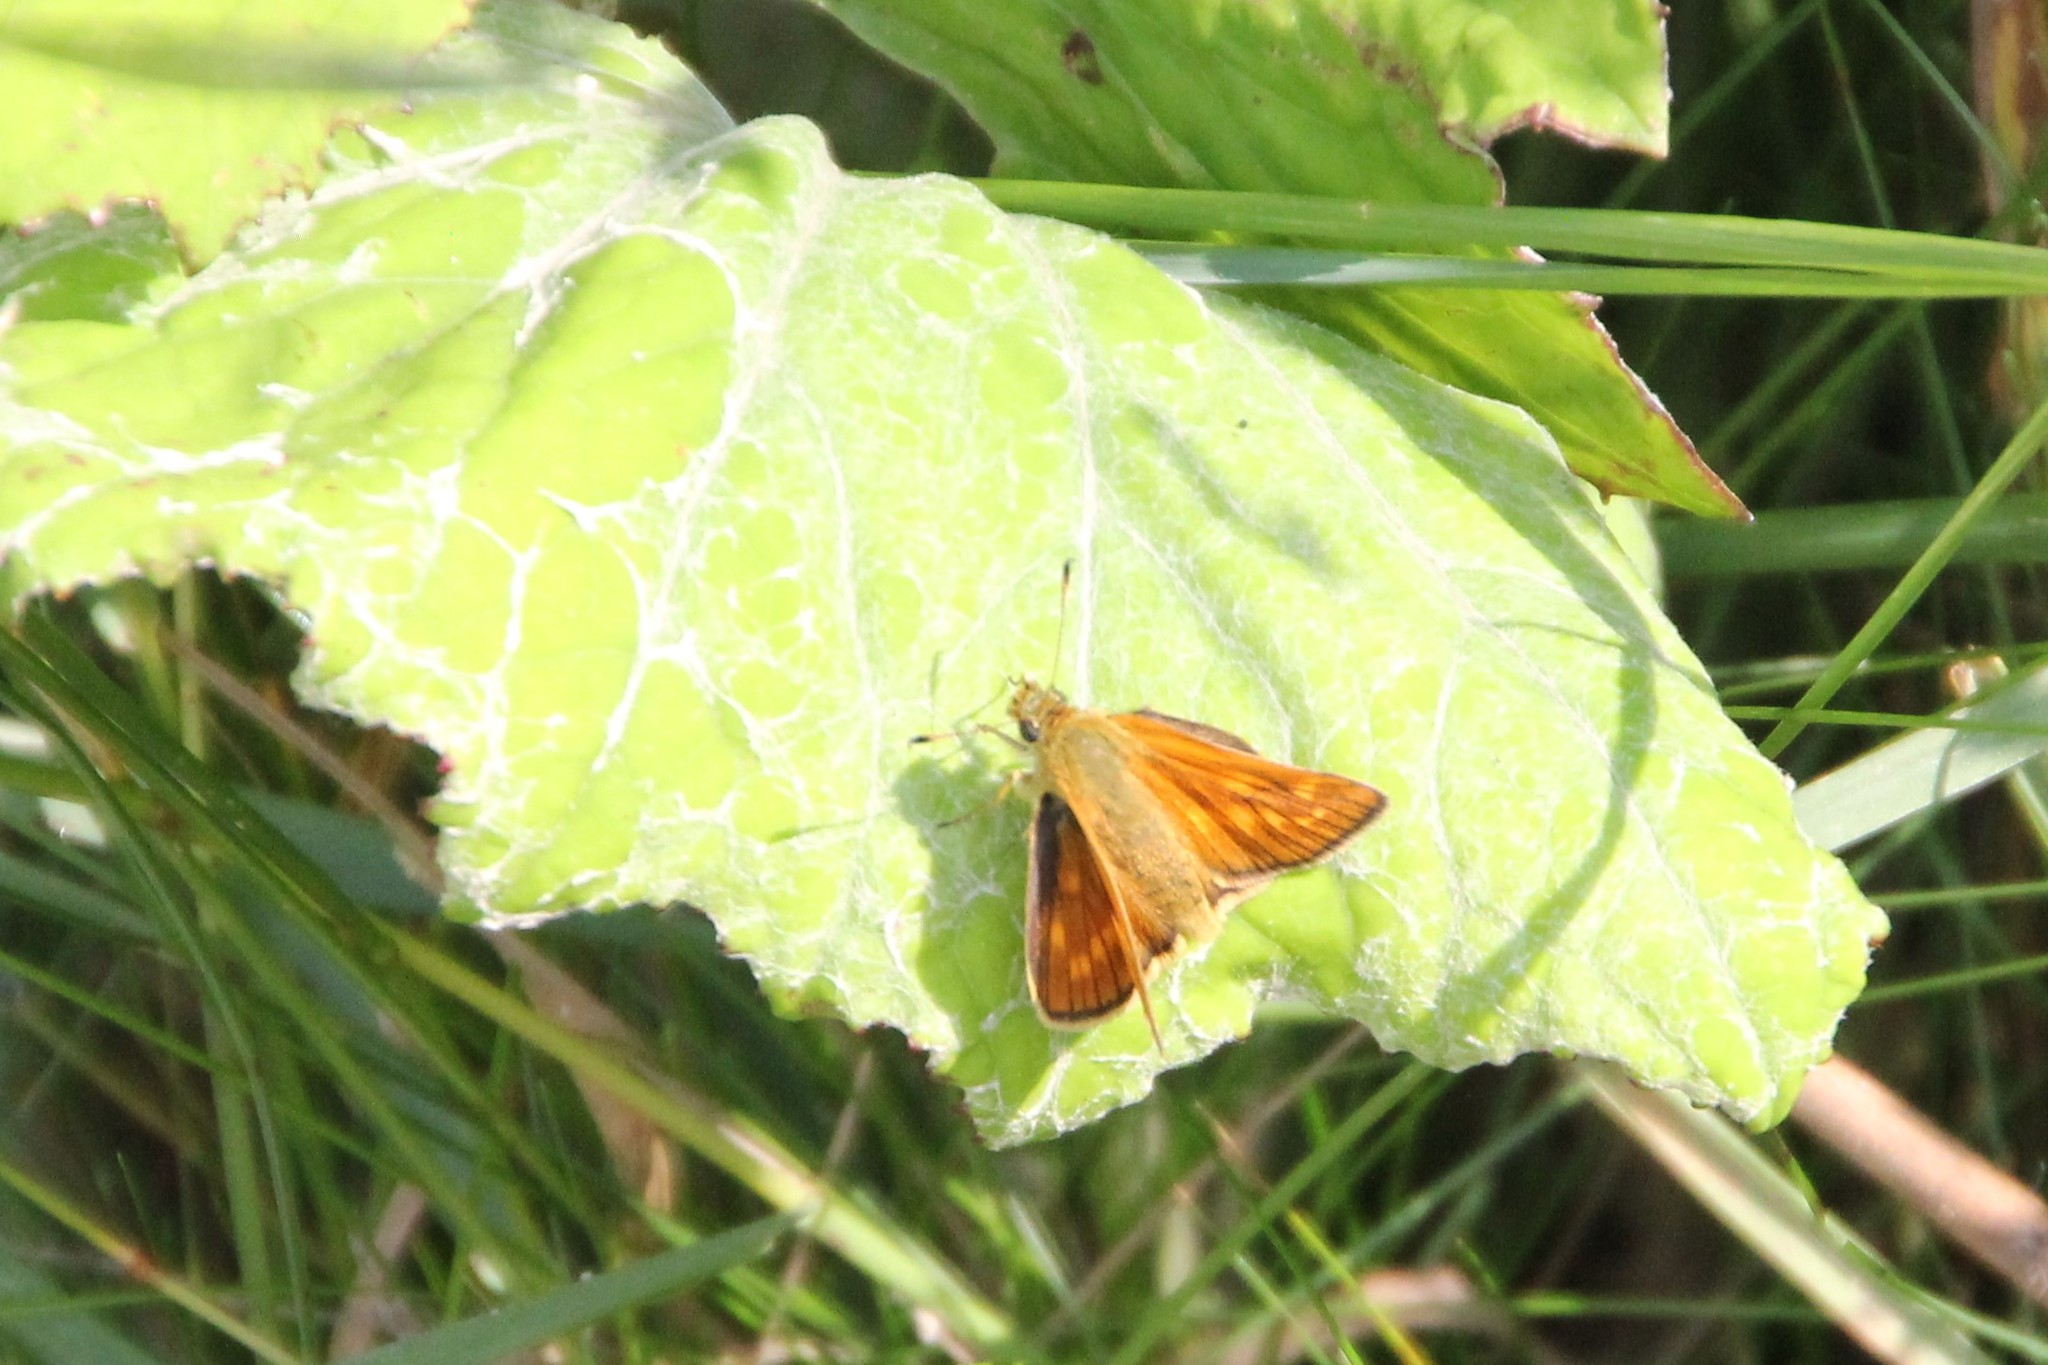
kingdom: Animalia
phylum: Arthropoda
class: Insecta
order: Lepidoptera
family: Hesperiidae
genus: Ochlodes
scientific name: Ochlodes venata
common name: Large skipper
